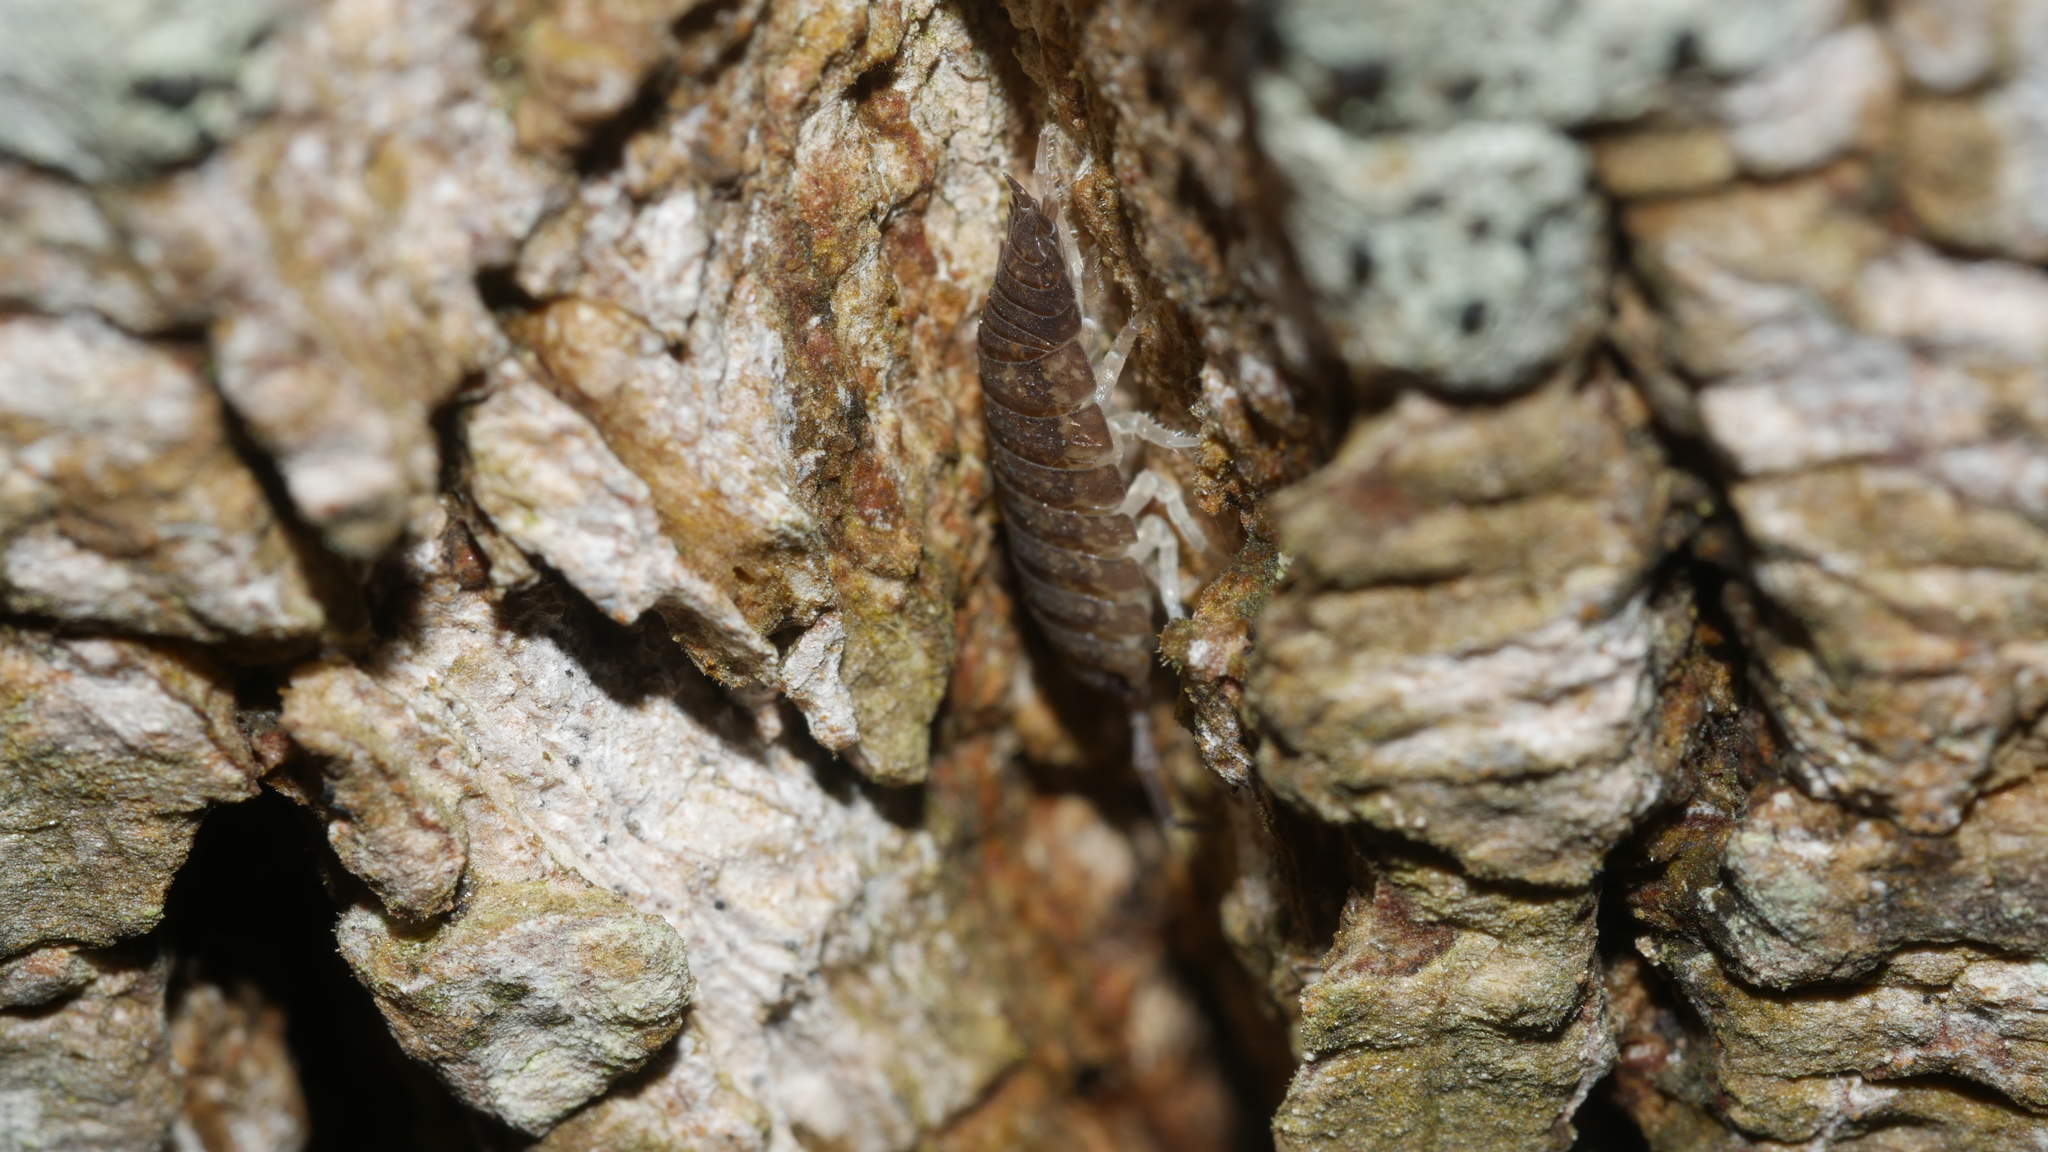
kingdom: Animalia
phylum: Arthropoda
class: Malacostraca
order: Isopoda
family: Porcellionidae
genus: Porcellio
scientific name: Porcellio scaber
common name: Common rough woodlouse
